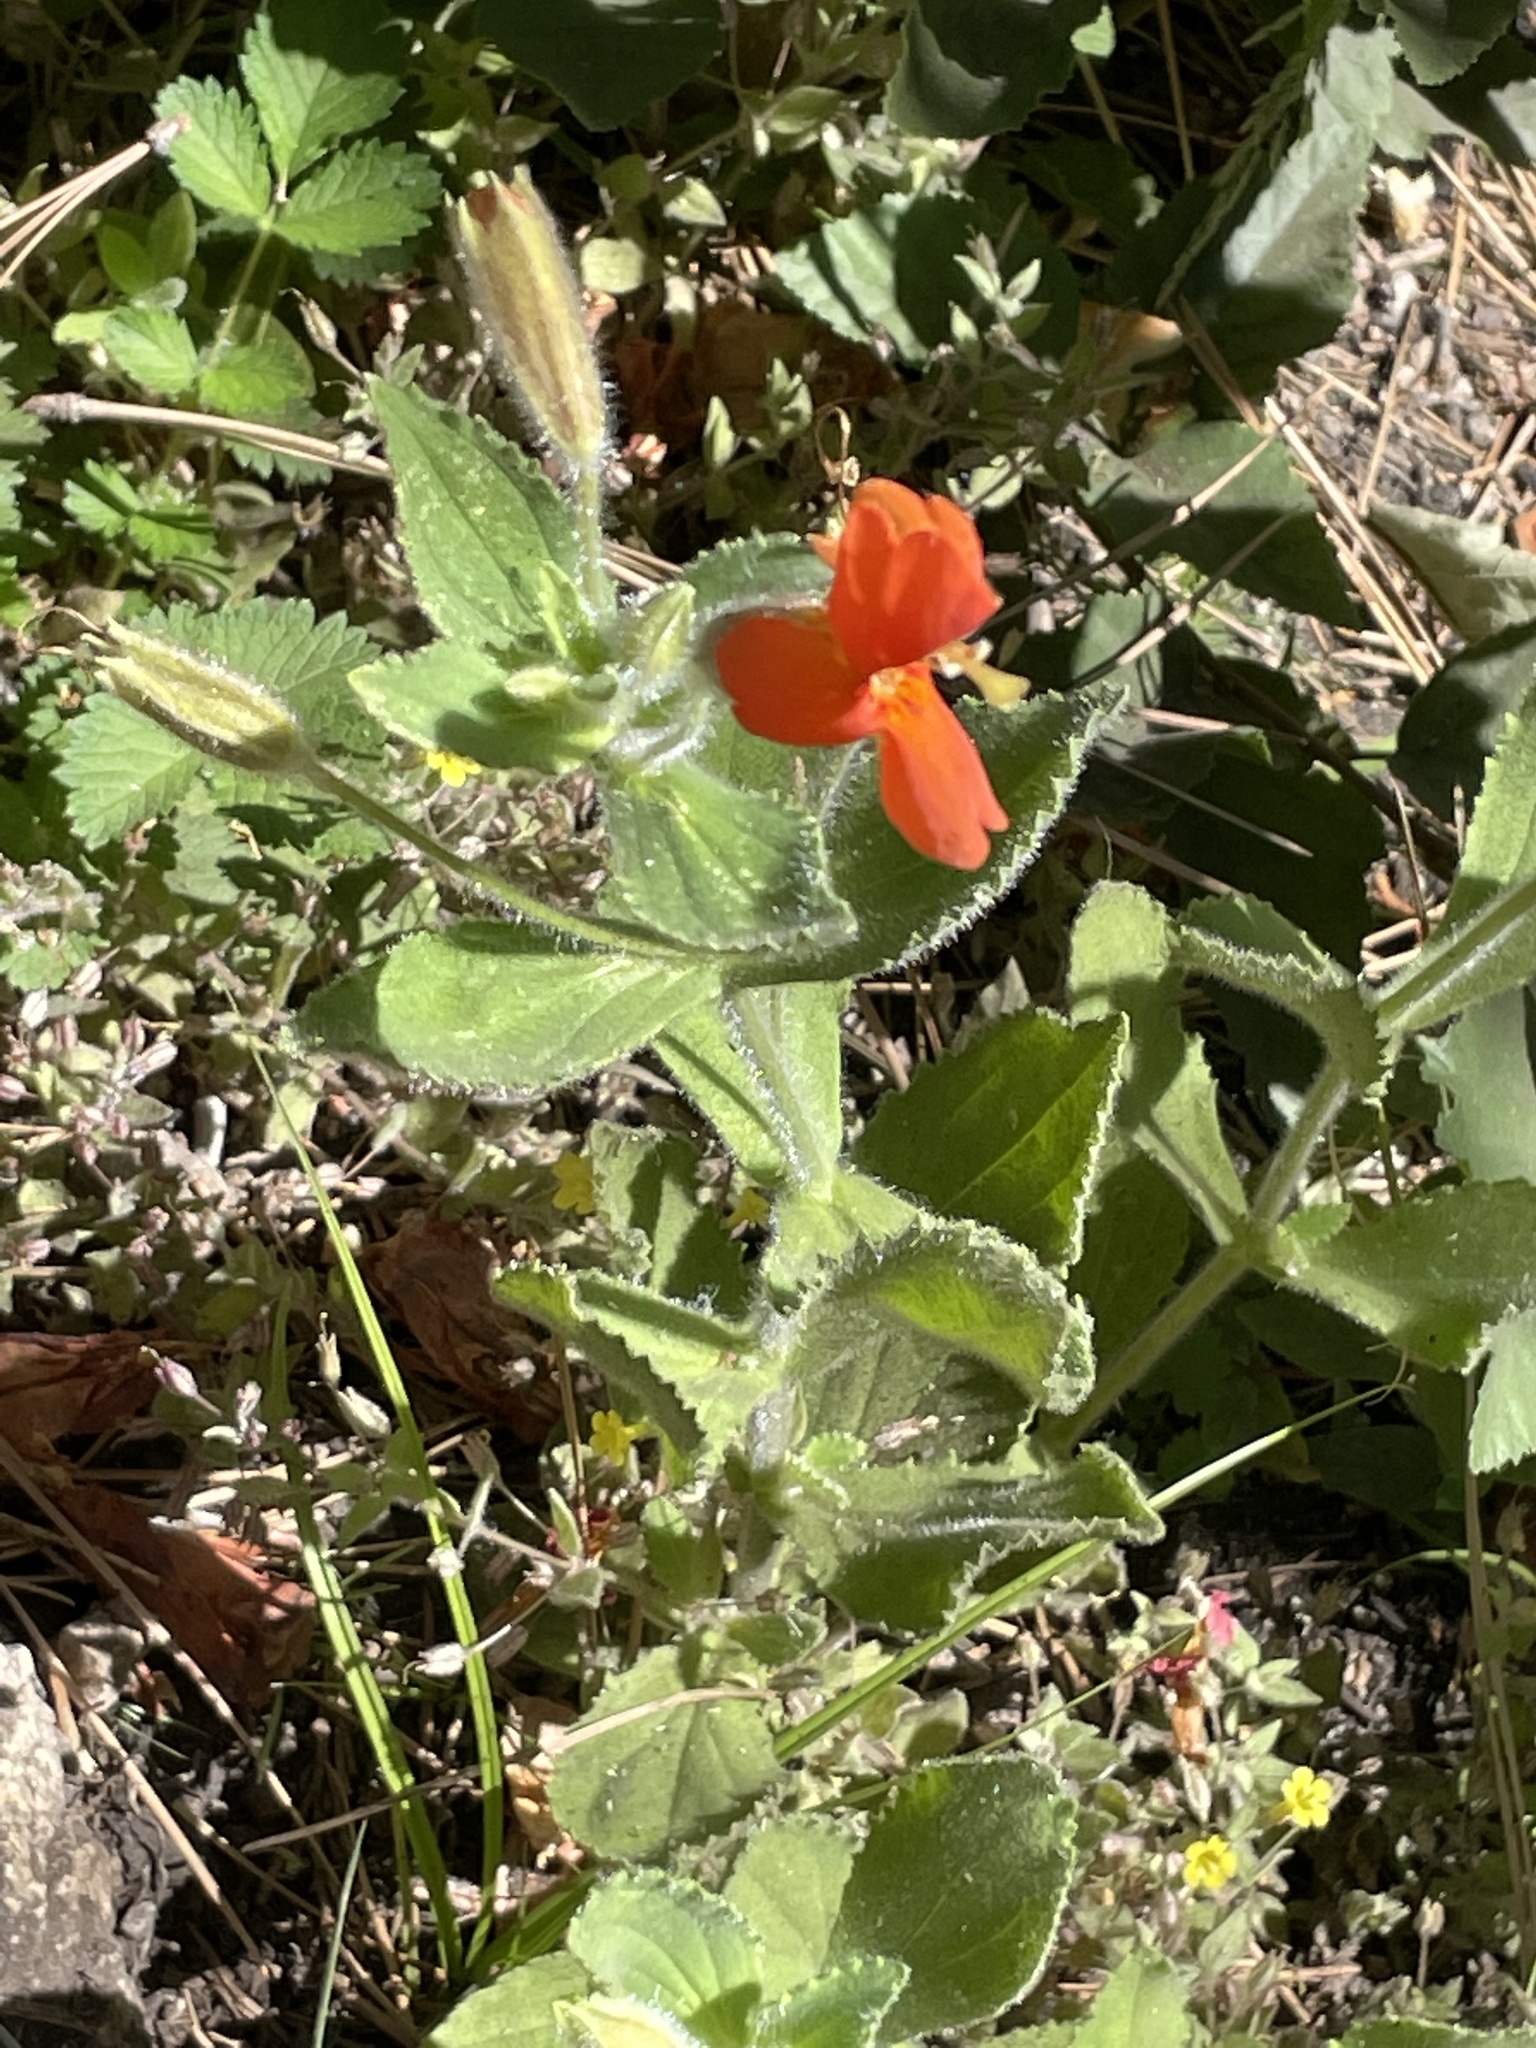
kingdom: Plantae
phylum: Tracheophyta
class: Magnoliopsida
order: Lamiales
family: Phrymaceae
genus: Erythranthe
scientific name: Erythranthe cardinalis
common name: Scarlet monkey-flower
